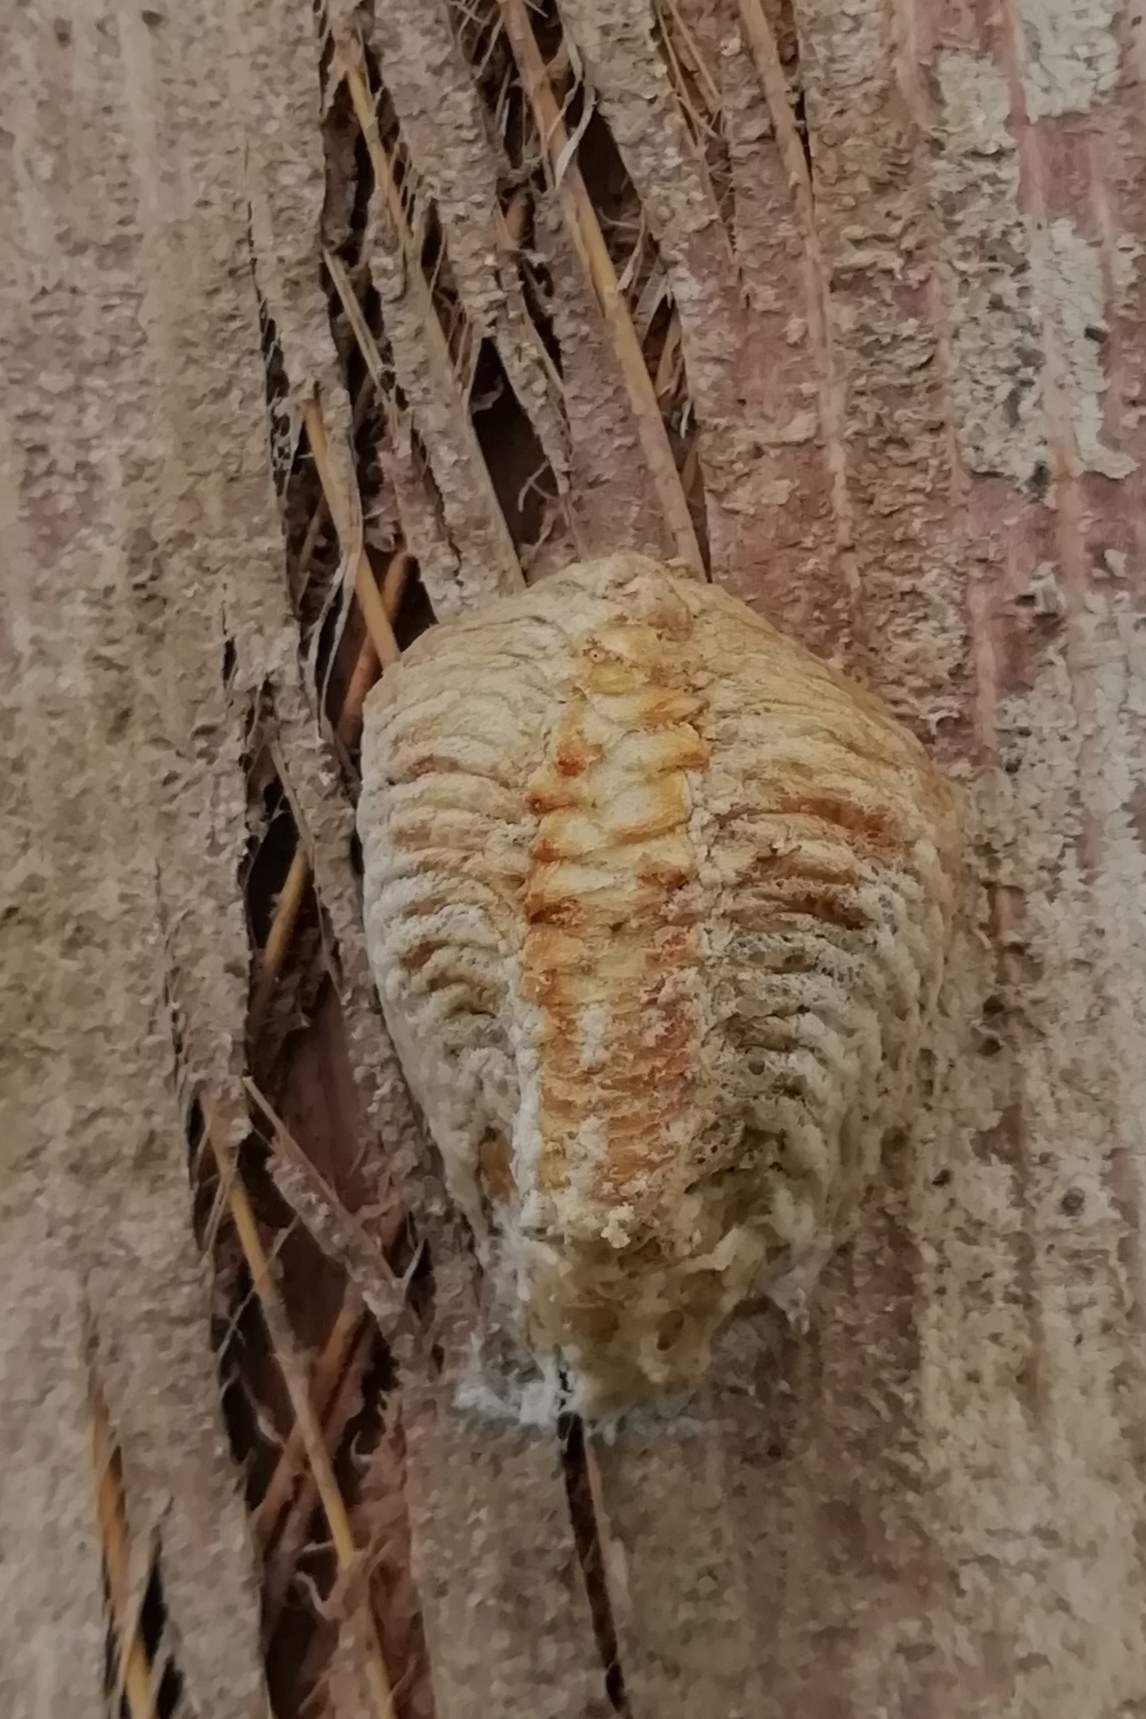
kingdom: Animalia
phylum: Arthropoda
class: Insecta
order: Mantodea
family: Mantidae
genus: Sphodromantis
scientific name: Sphodromantis viridis
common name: Giant african mantis
